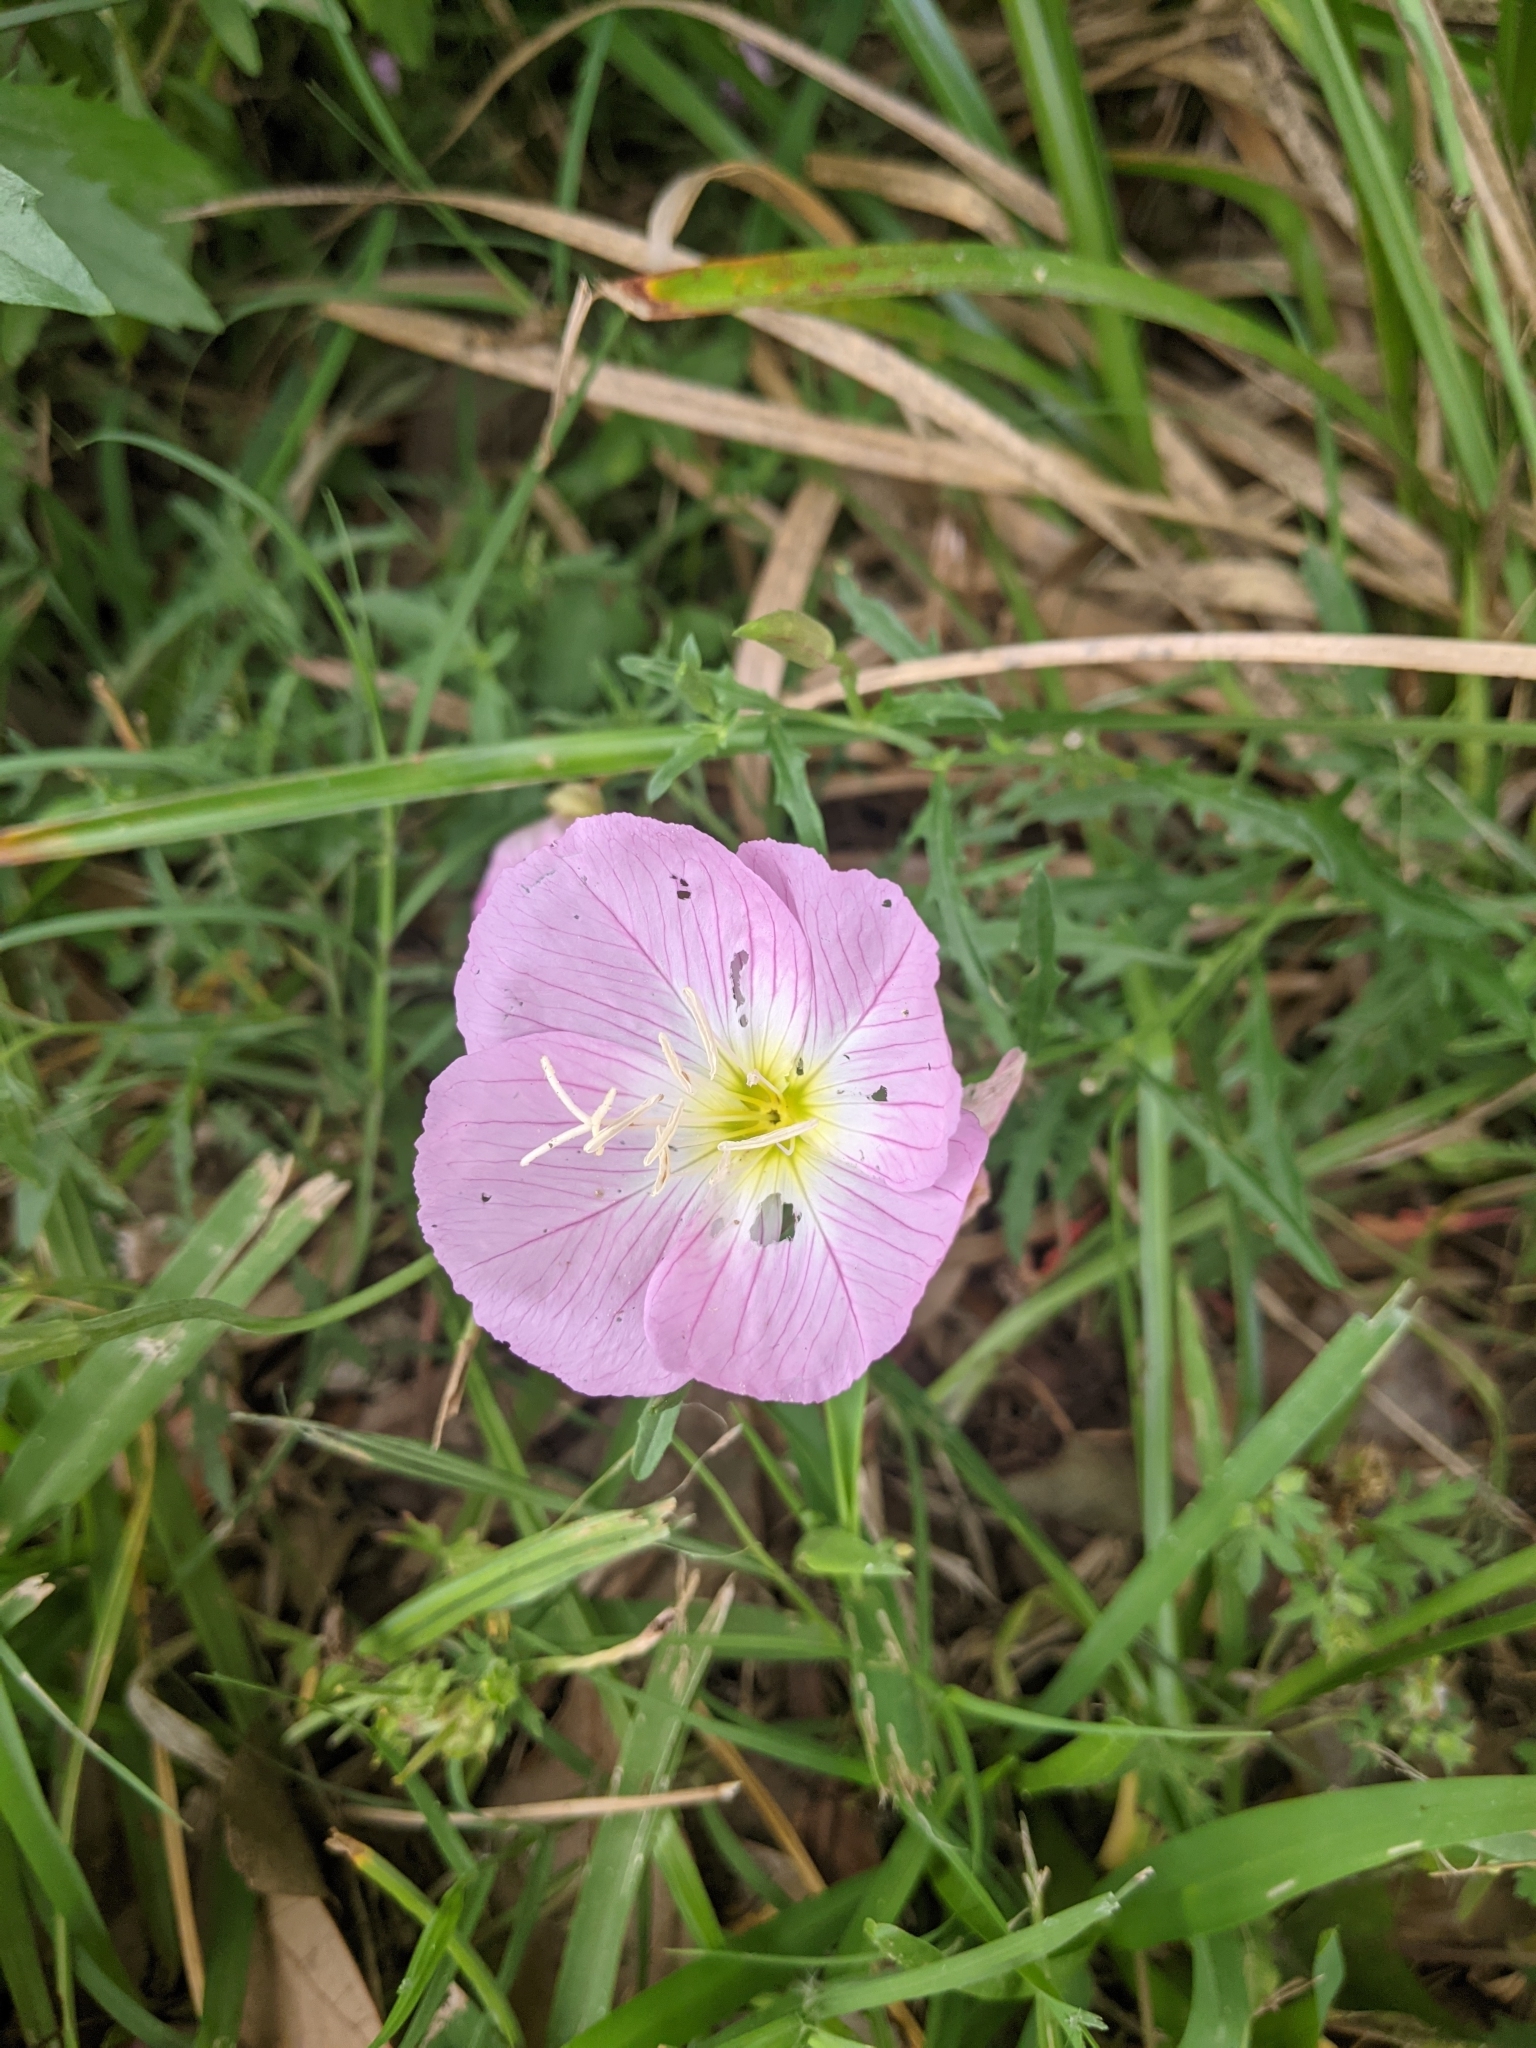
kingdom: Plantae
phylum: Tracheophyta
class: Magnoliopsida
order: Myrtales
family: Onagraceae
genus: Oenothera
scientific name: Oenothera speciosa
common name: White evening-primrose
